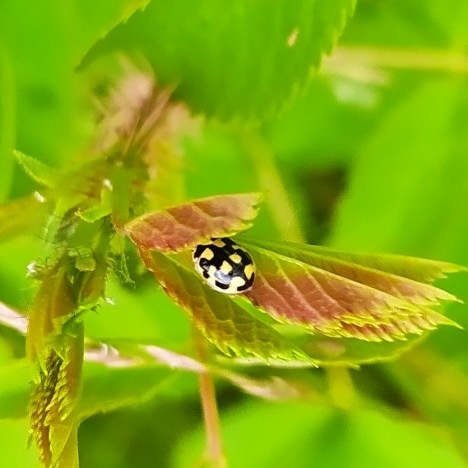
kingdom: Animalia
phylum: Arthropoda
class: Insecta
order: Coleoptera
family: Coccinellidae
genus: Propylaea
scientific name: Propylaea quatuordecimpunctata
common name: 14-spotted ladybird beetle
